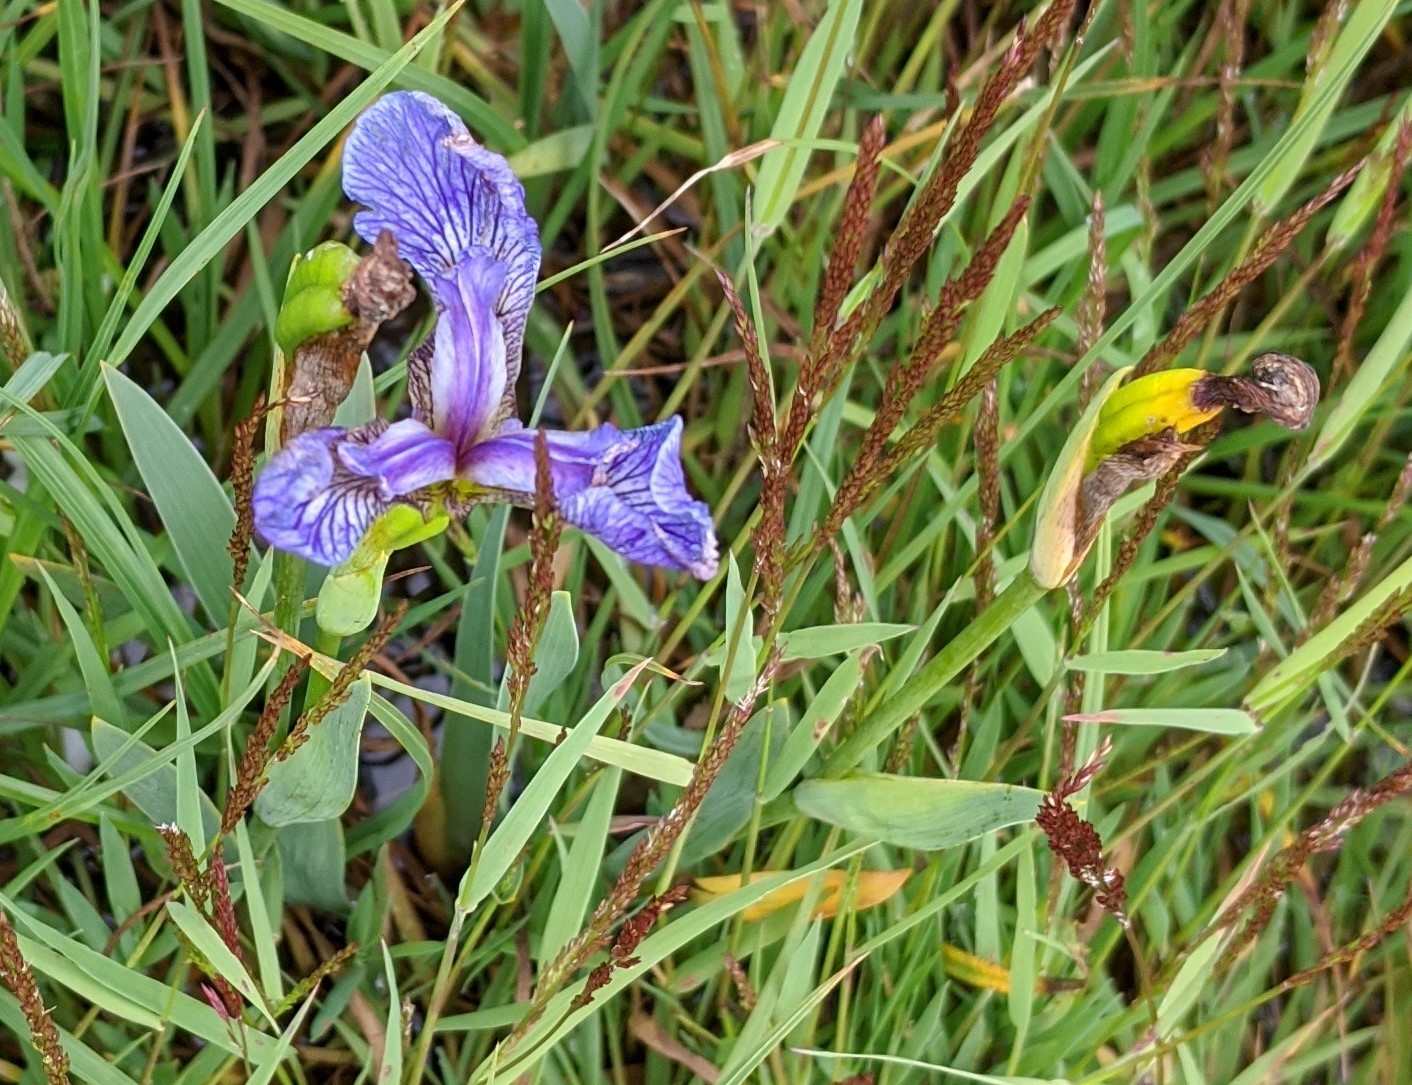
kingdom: Plantae
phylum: Tracheophyta
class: Liliopsida
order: Asparagales
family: Iridaceae
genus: Iris
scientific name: Iris hookeri
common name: Canada beach-head iris
